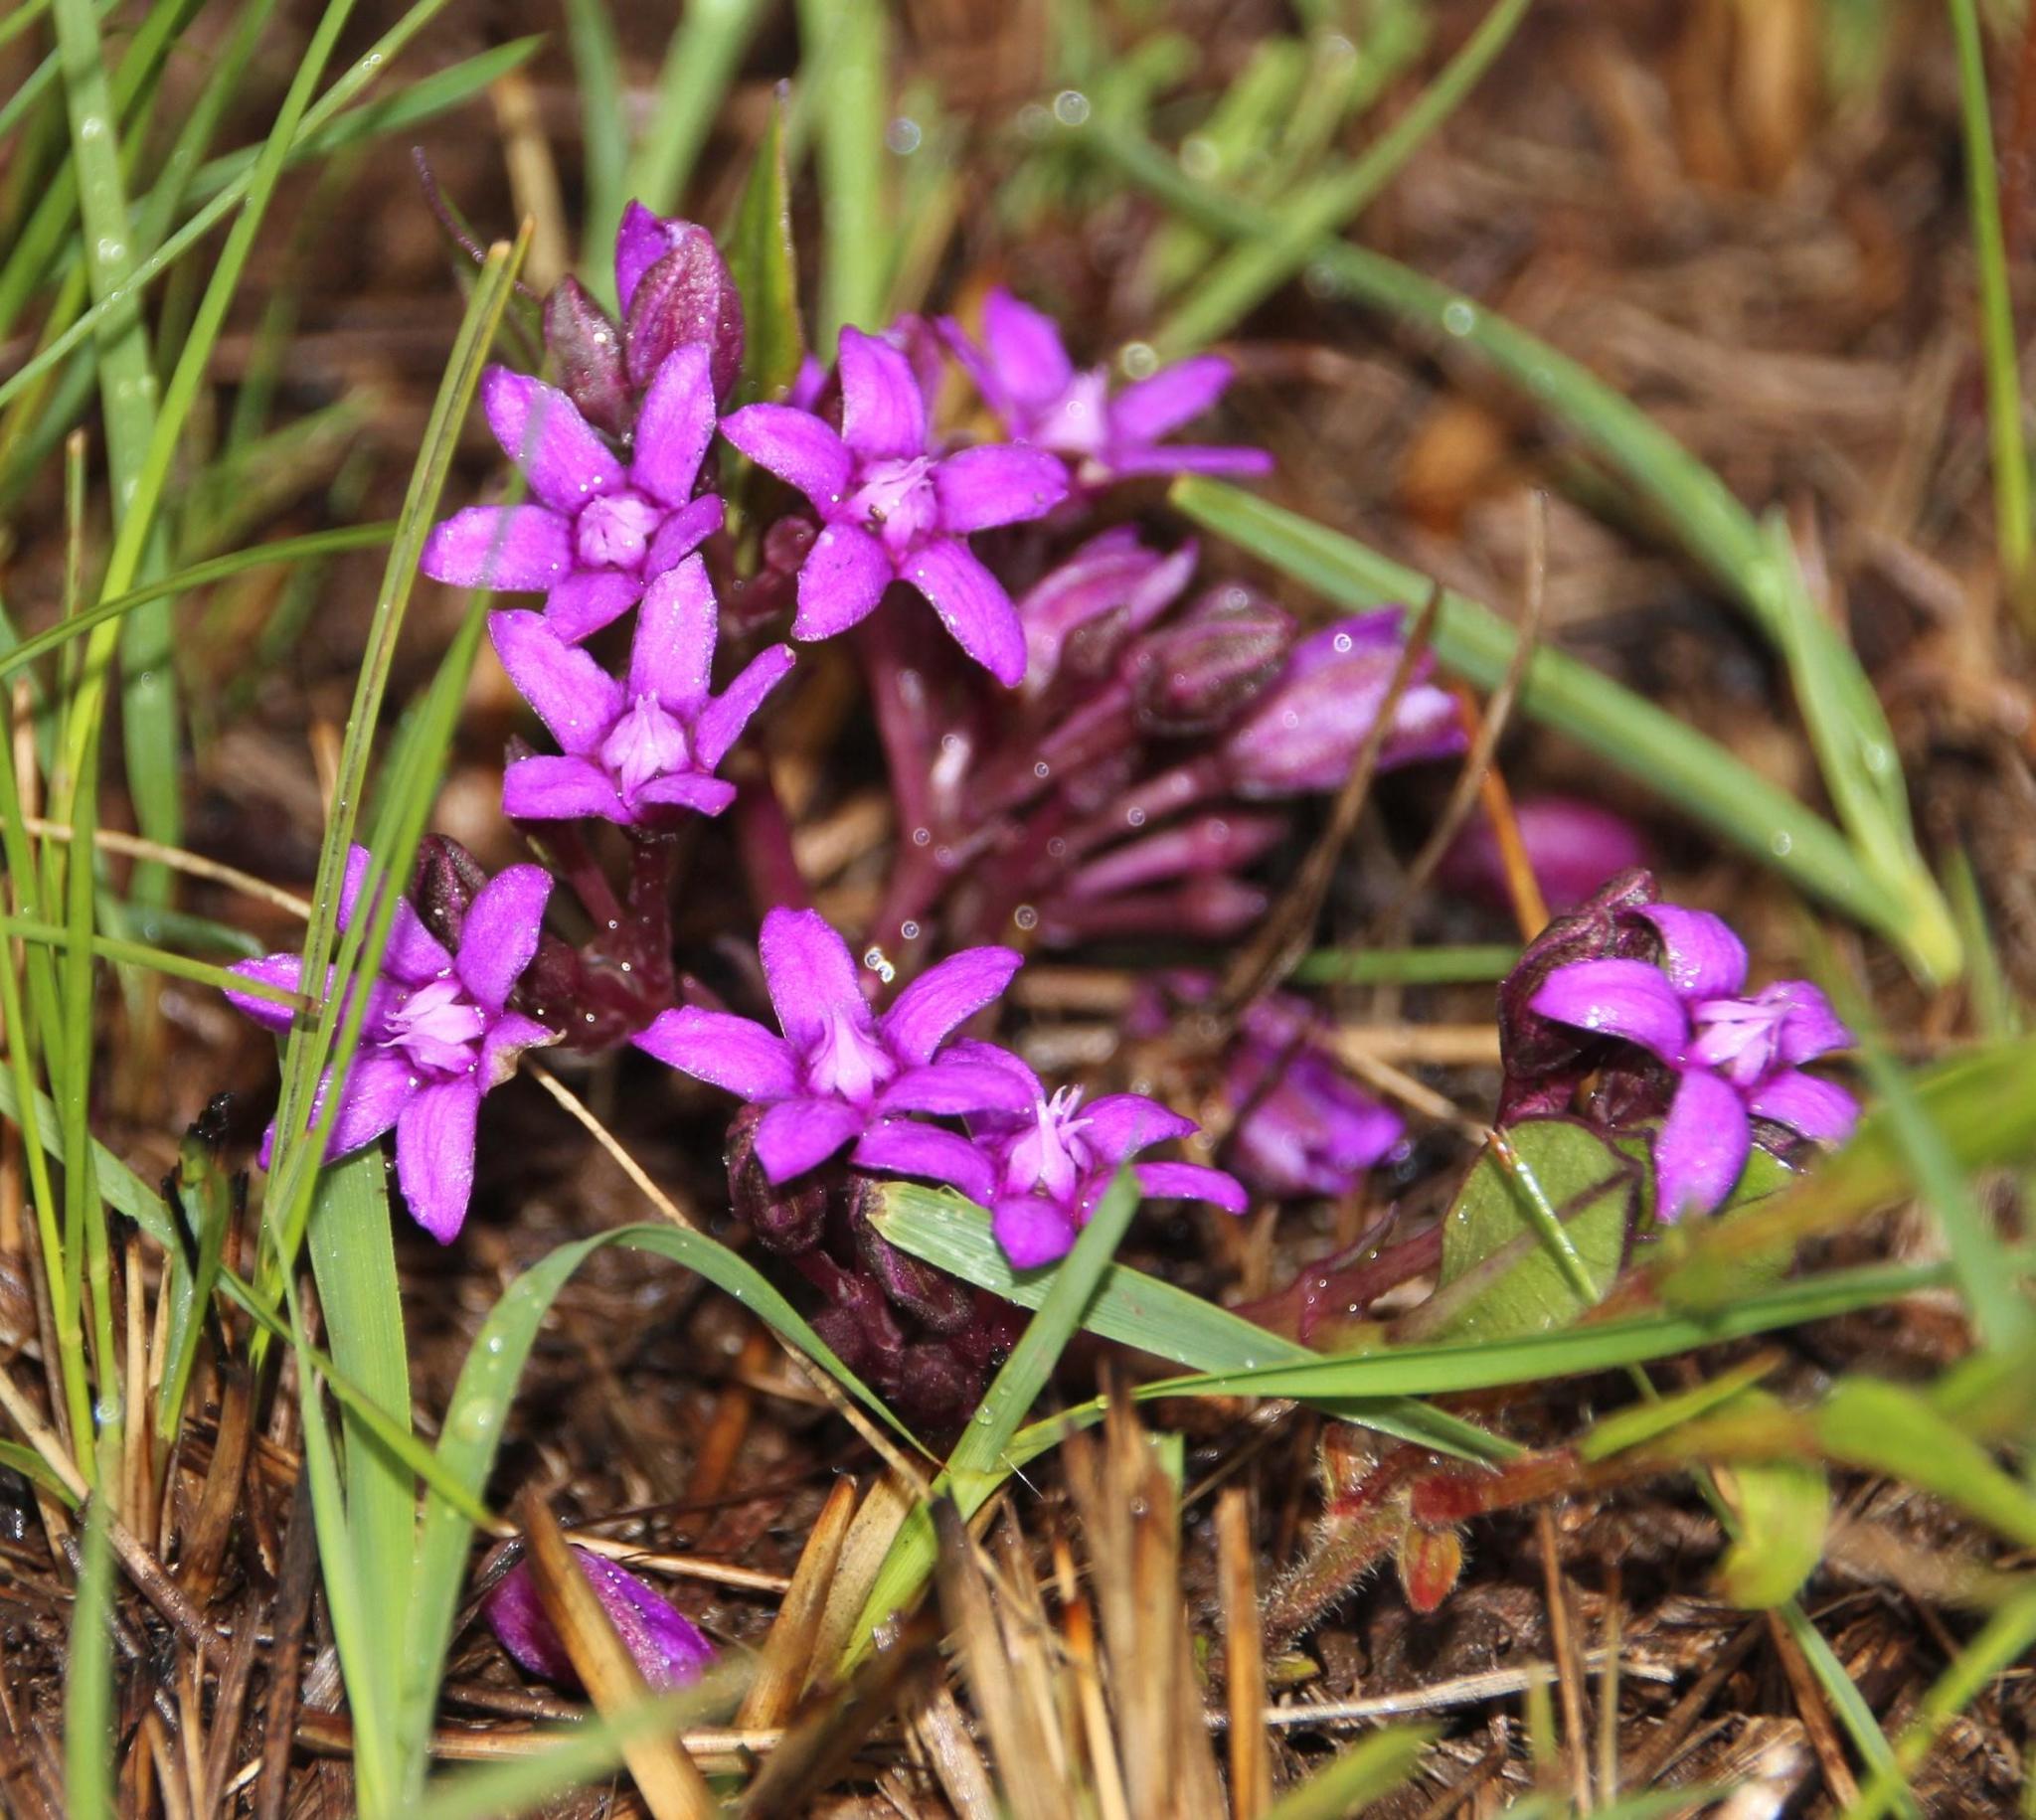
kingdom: Plantae
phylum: Tracheophyta
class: Magnoliopsida
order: Gentianales
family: Apocynaceae
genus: Raphionacme
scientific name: Raphionacme hirsuta
